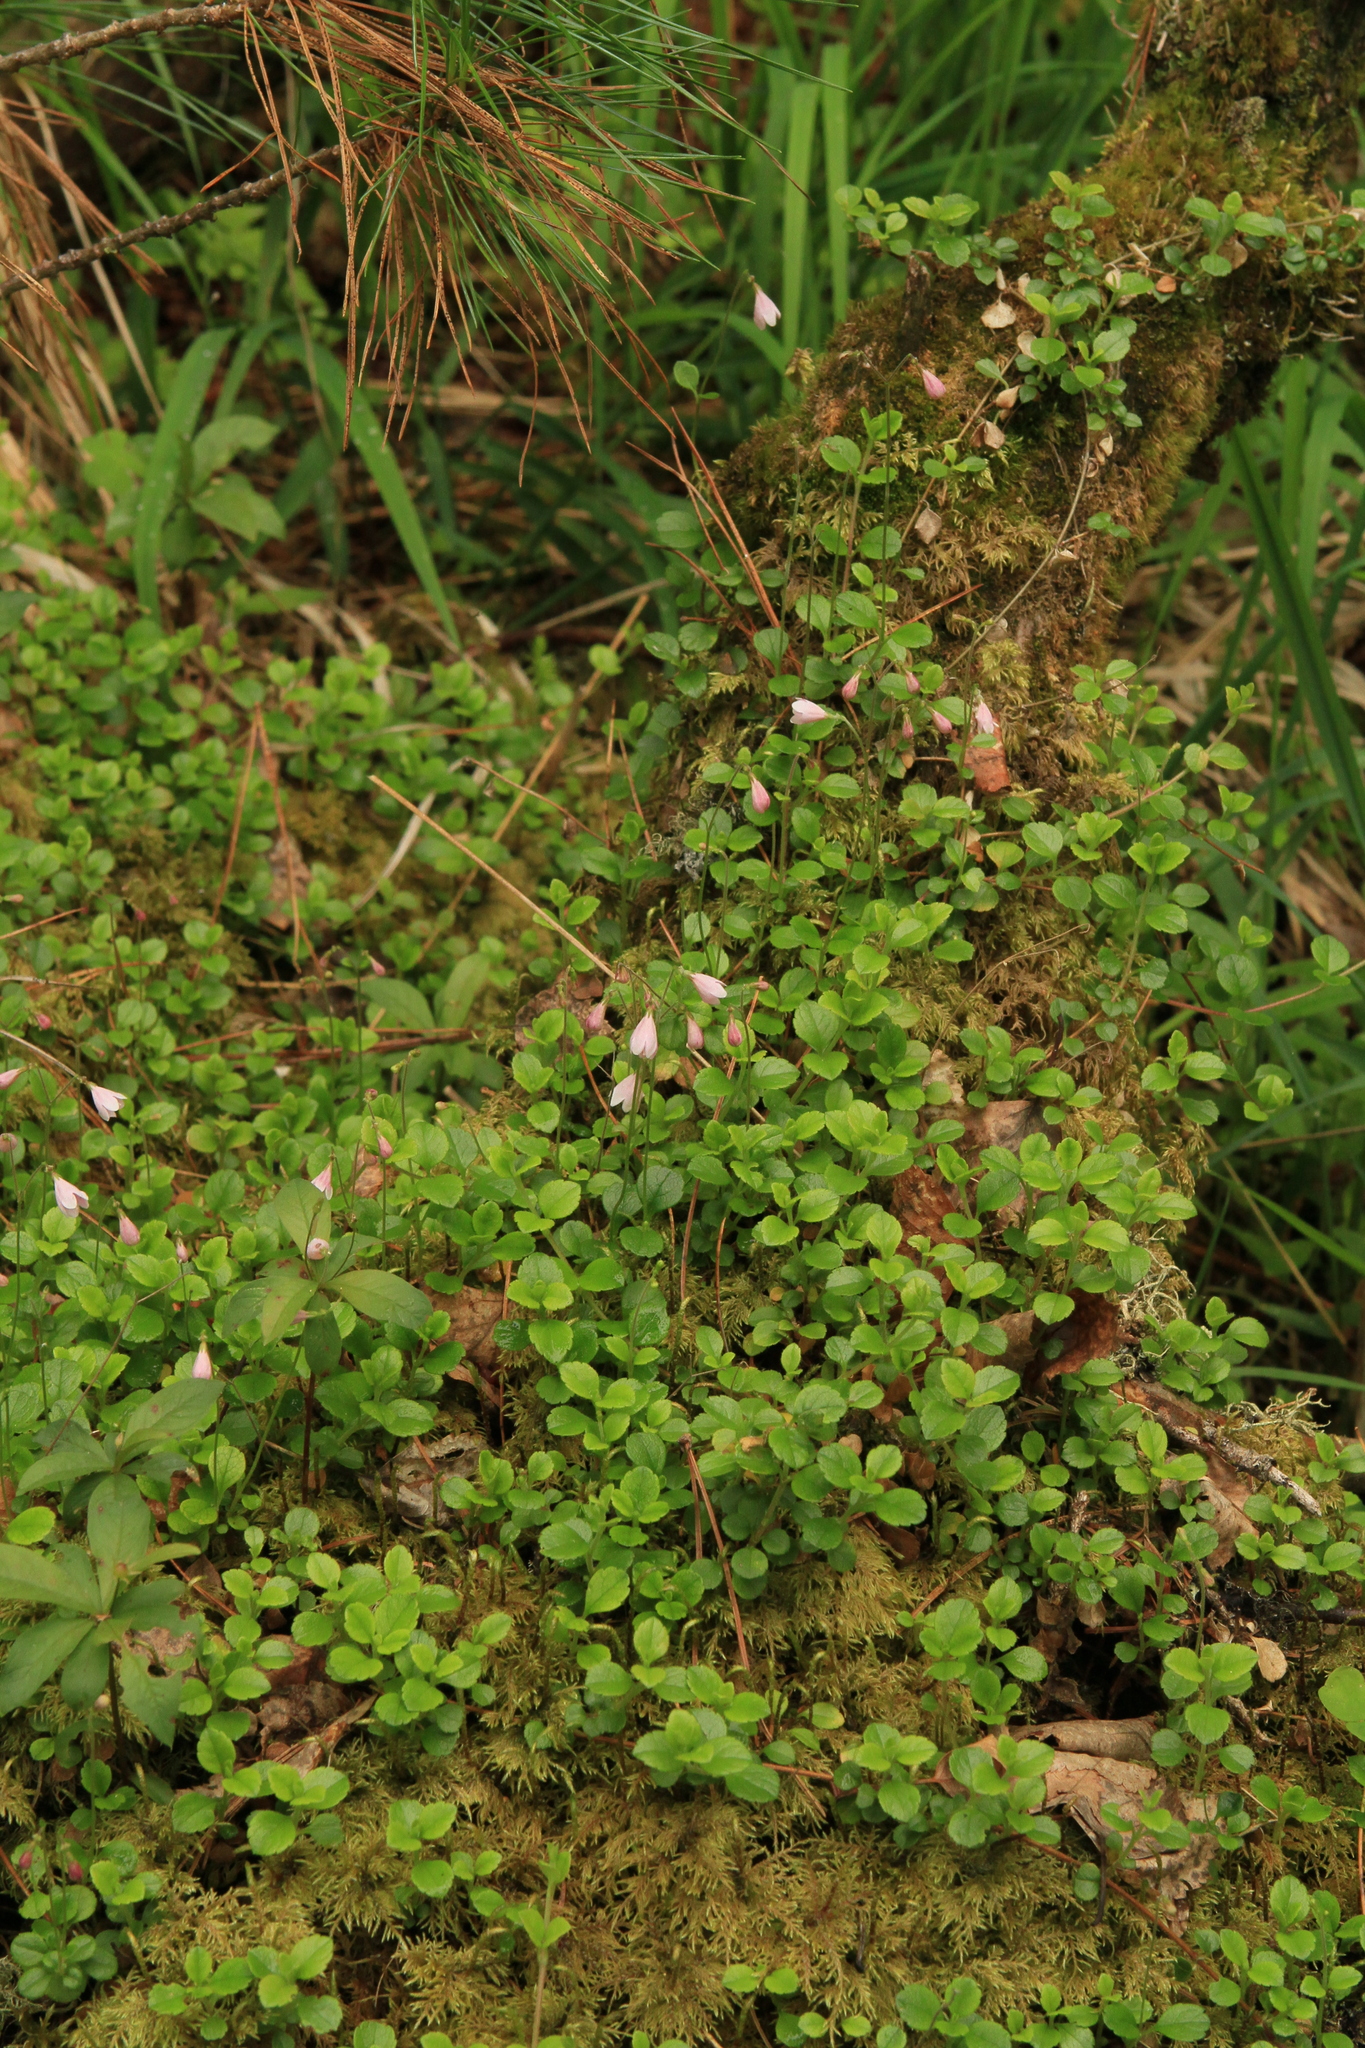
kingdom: Plantae
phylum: Tracheophyta
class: Magnoliopsida
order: Dipsacales
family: Caprifoliaceae
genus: Linnaea
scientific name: Linnaea borealis
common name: Twinflower
